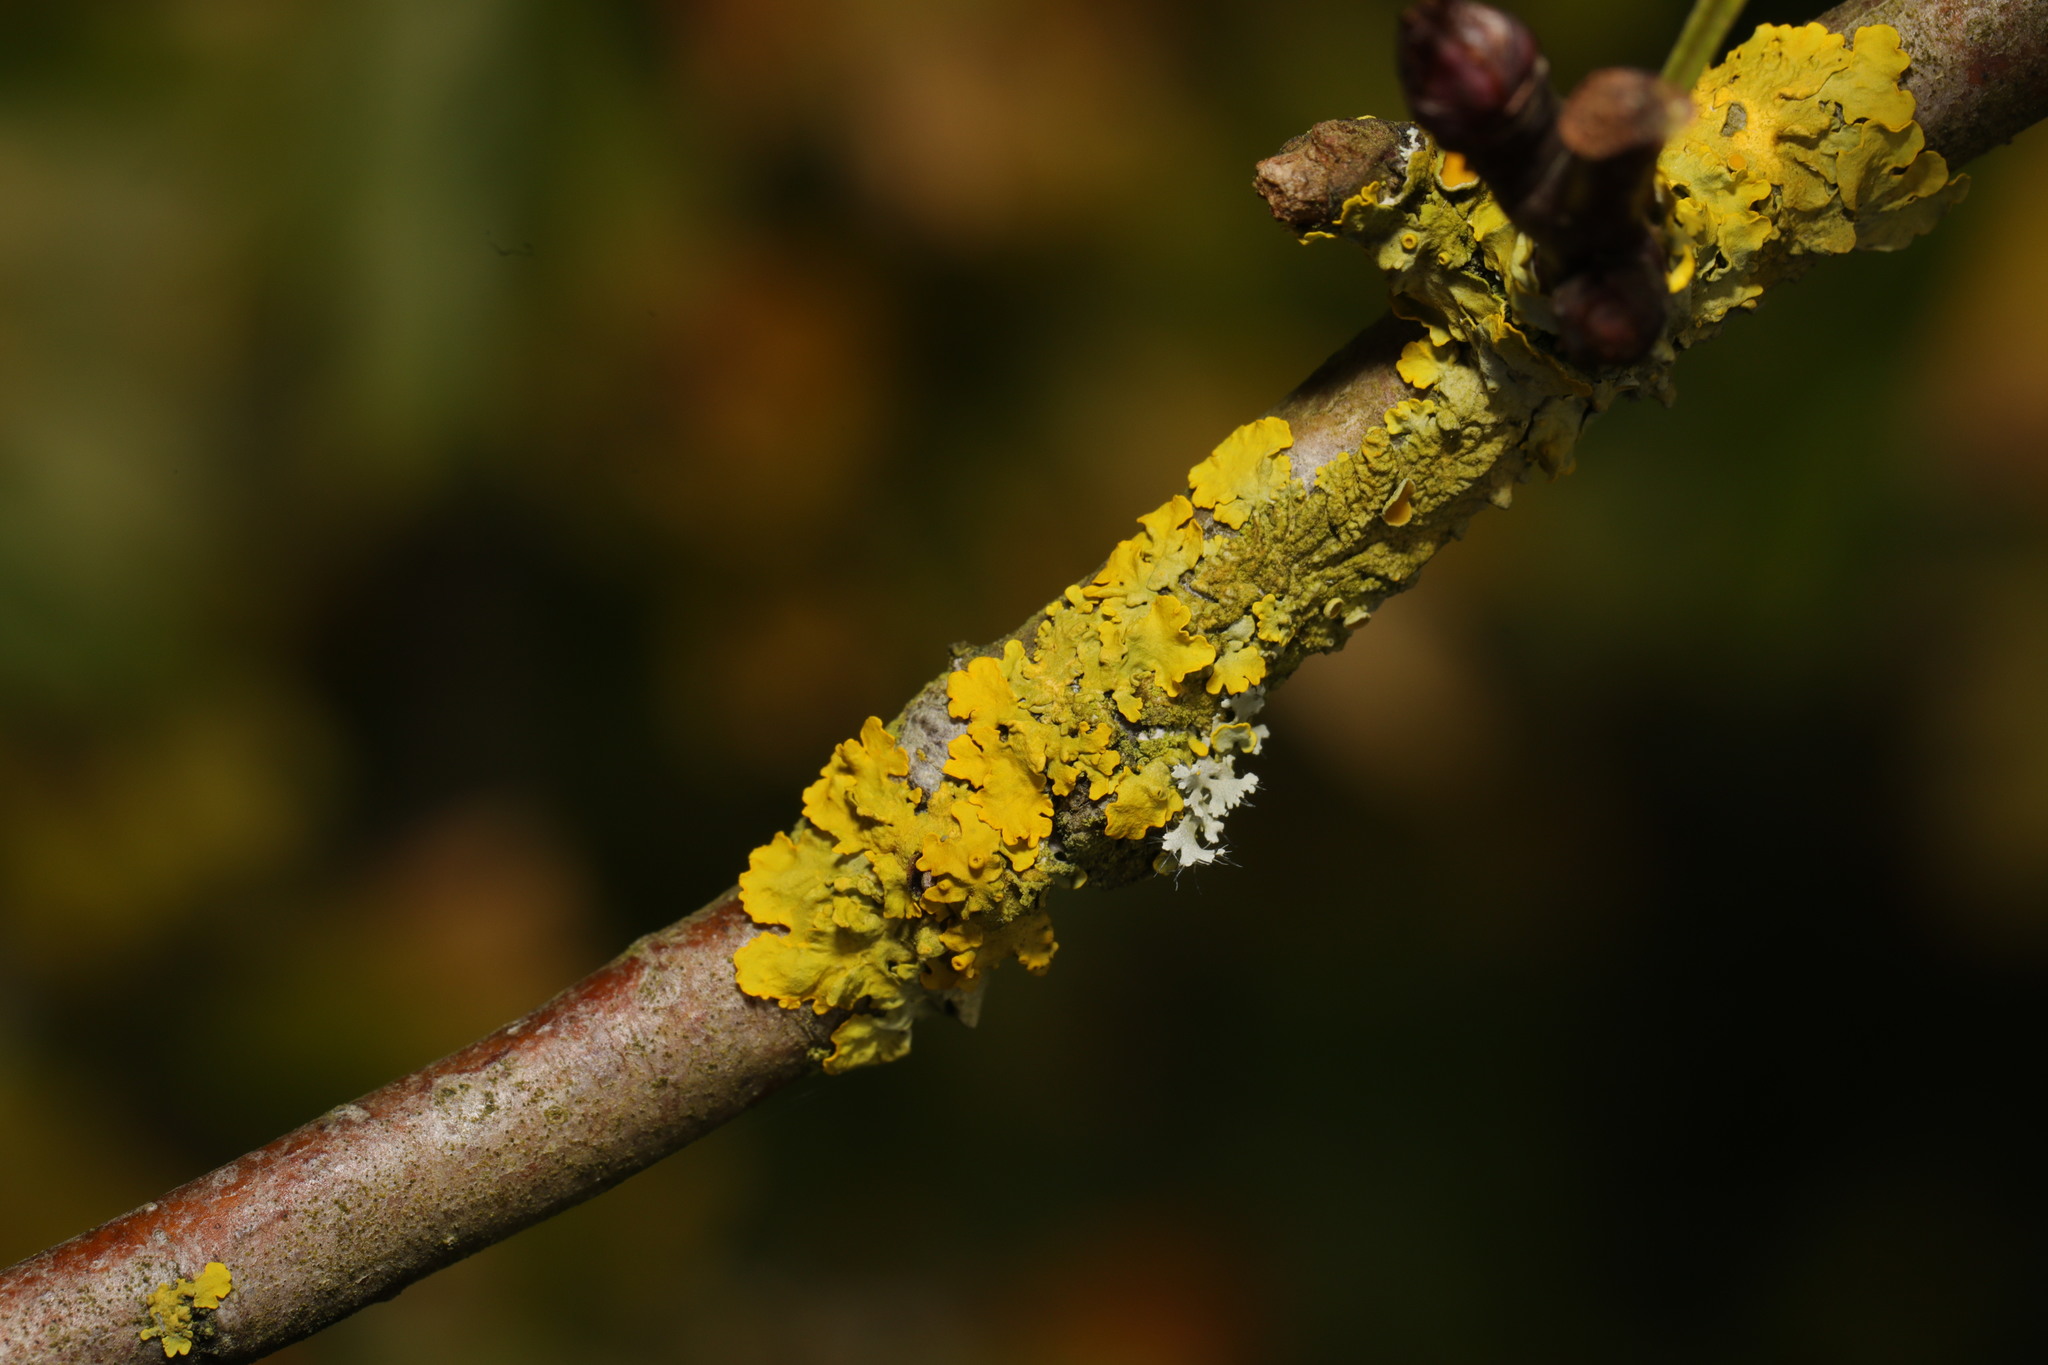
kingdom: Fungi
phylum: Ascomycota
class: Lecanoromycetes
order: Teloschistales
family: Teloschistaceae
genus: Xanthoria
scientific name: Xanthoria parietina
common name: Common orange lichen
